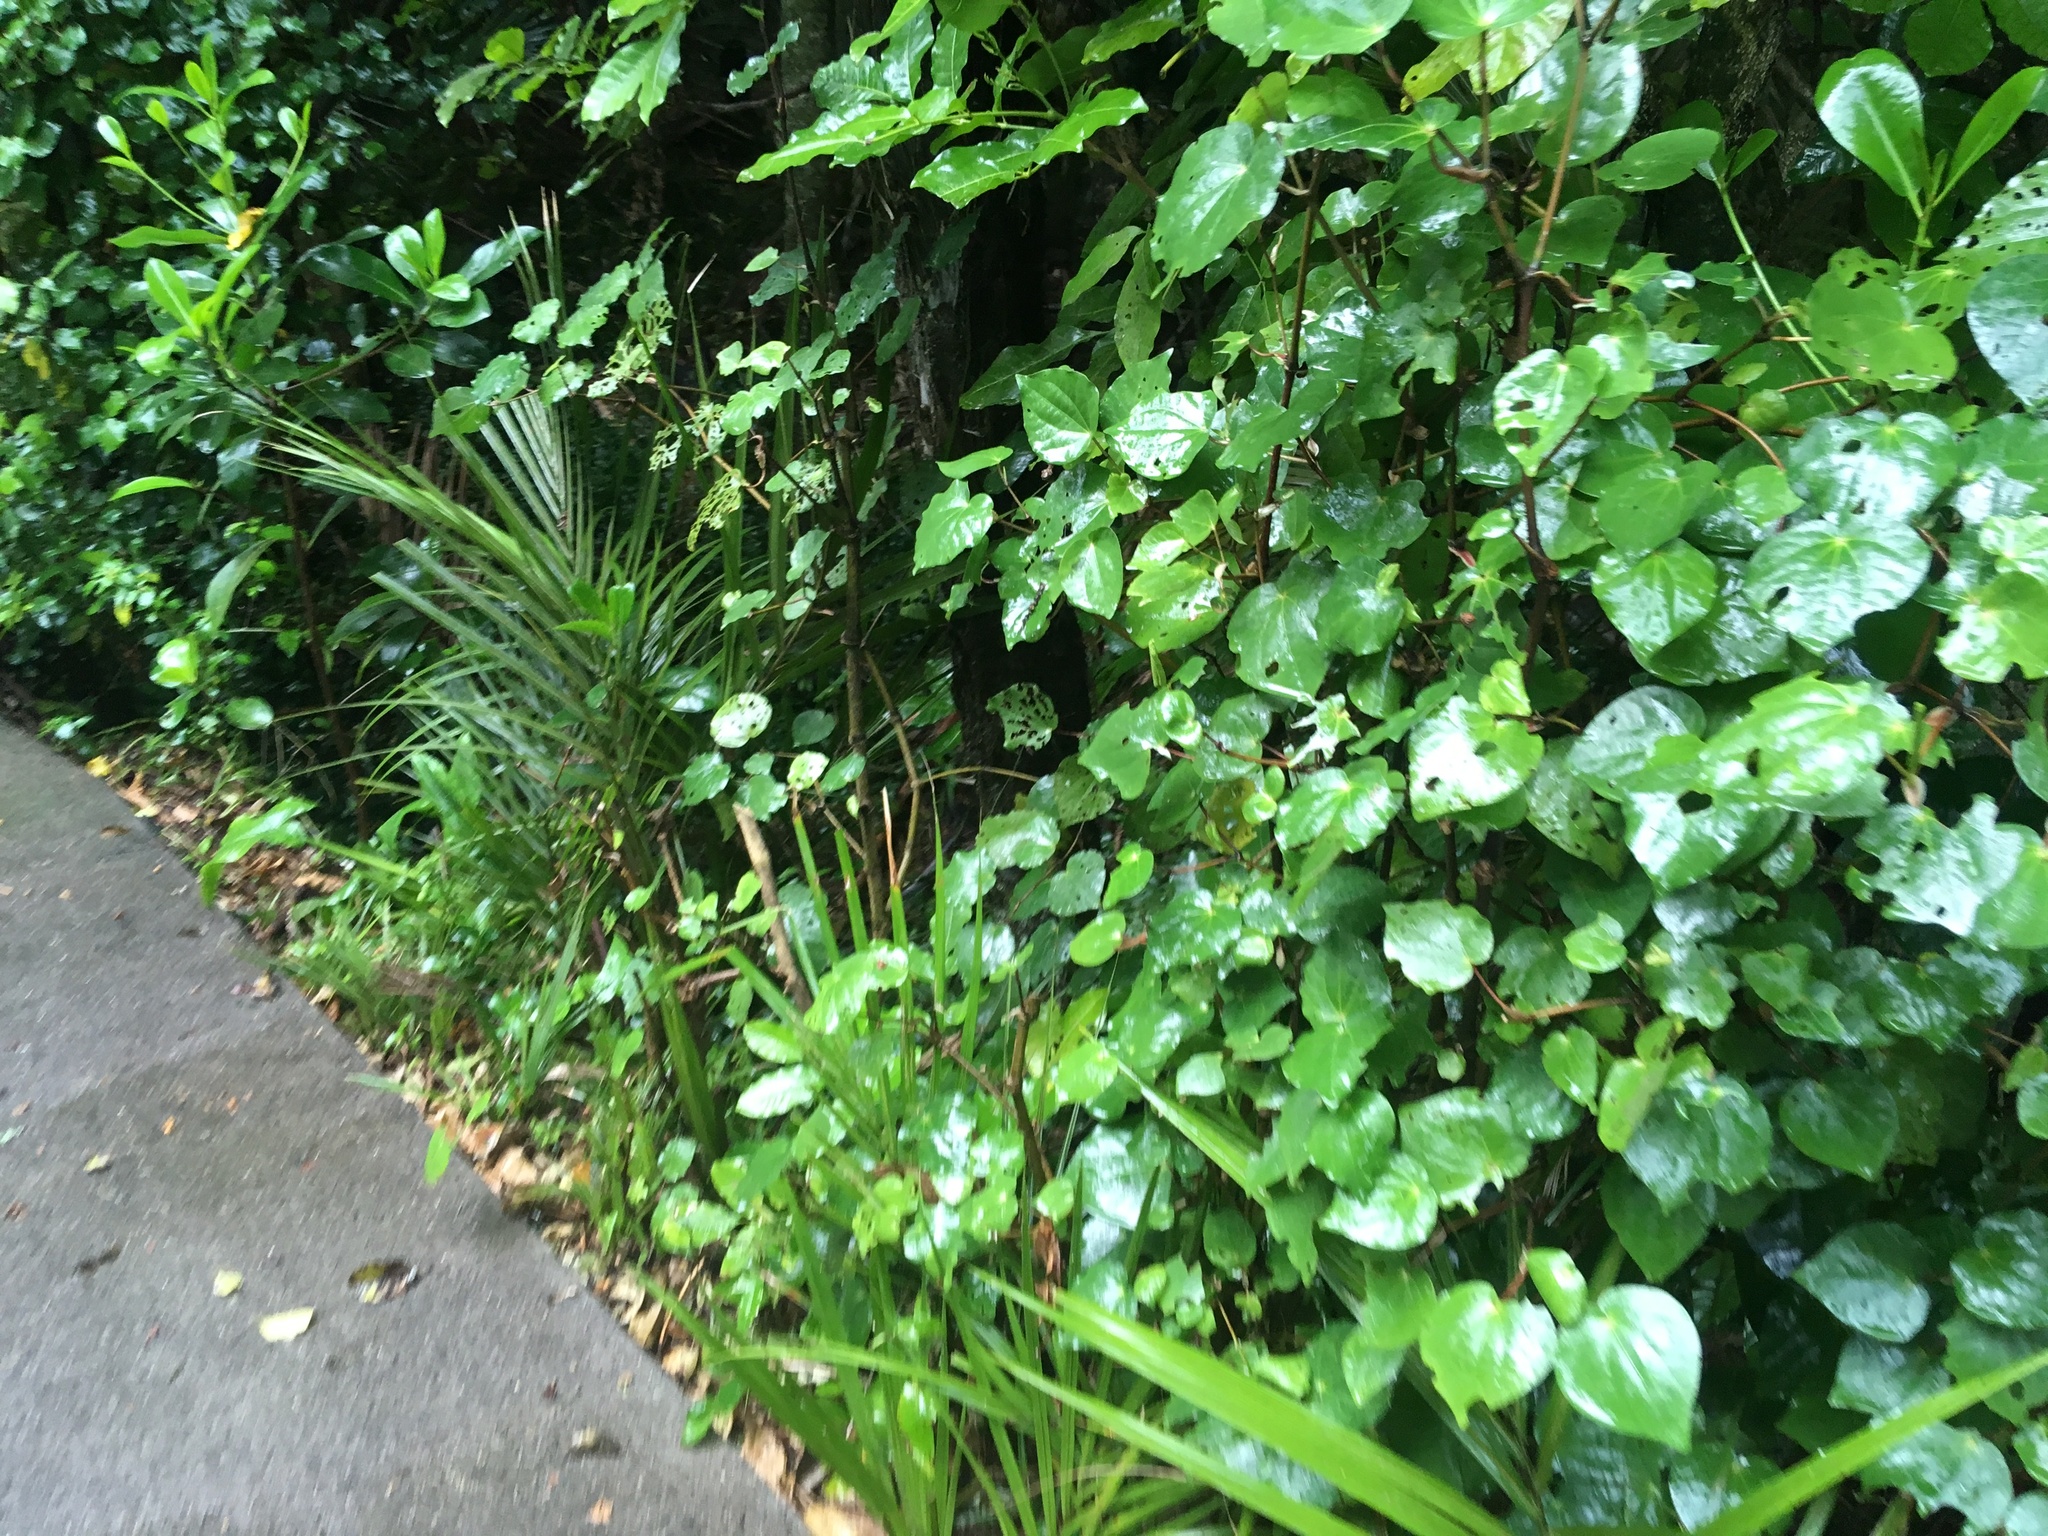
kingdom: Plantae
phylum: Tracheophyta
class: Magnoliopsida
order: Piperales
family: Piperaceae
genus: Macropiper
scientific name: Macropiper excelsum
